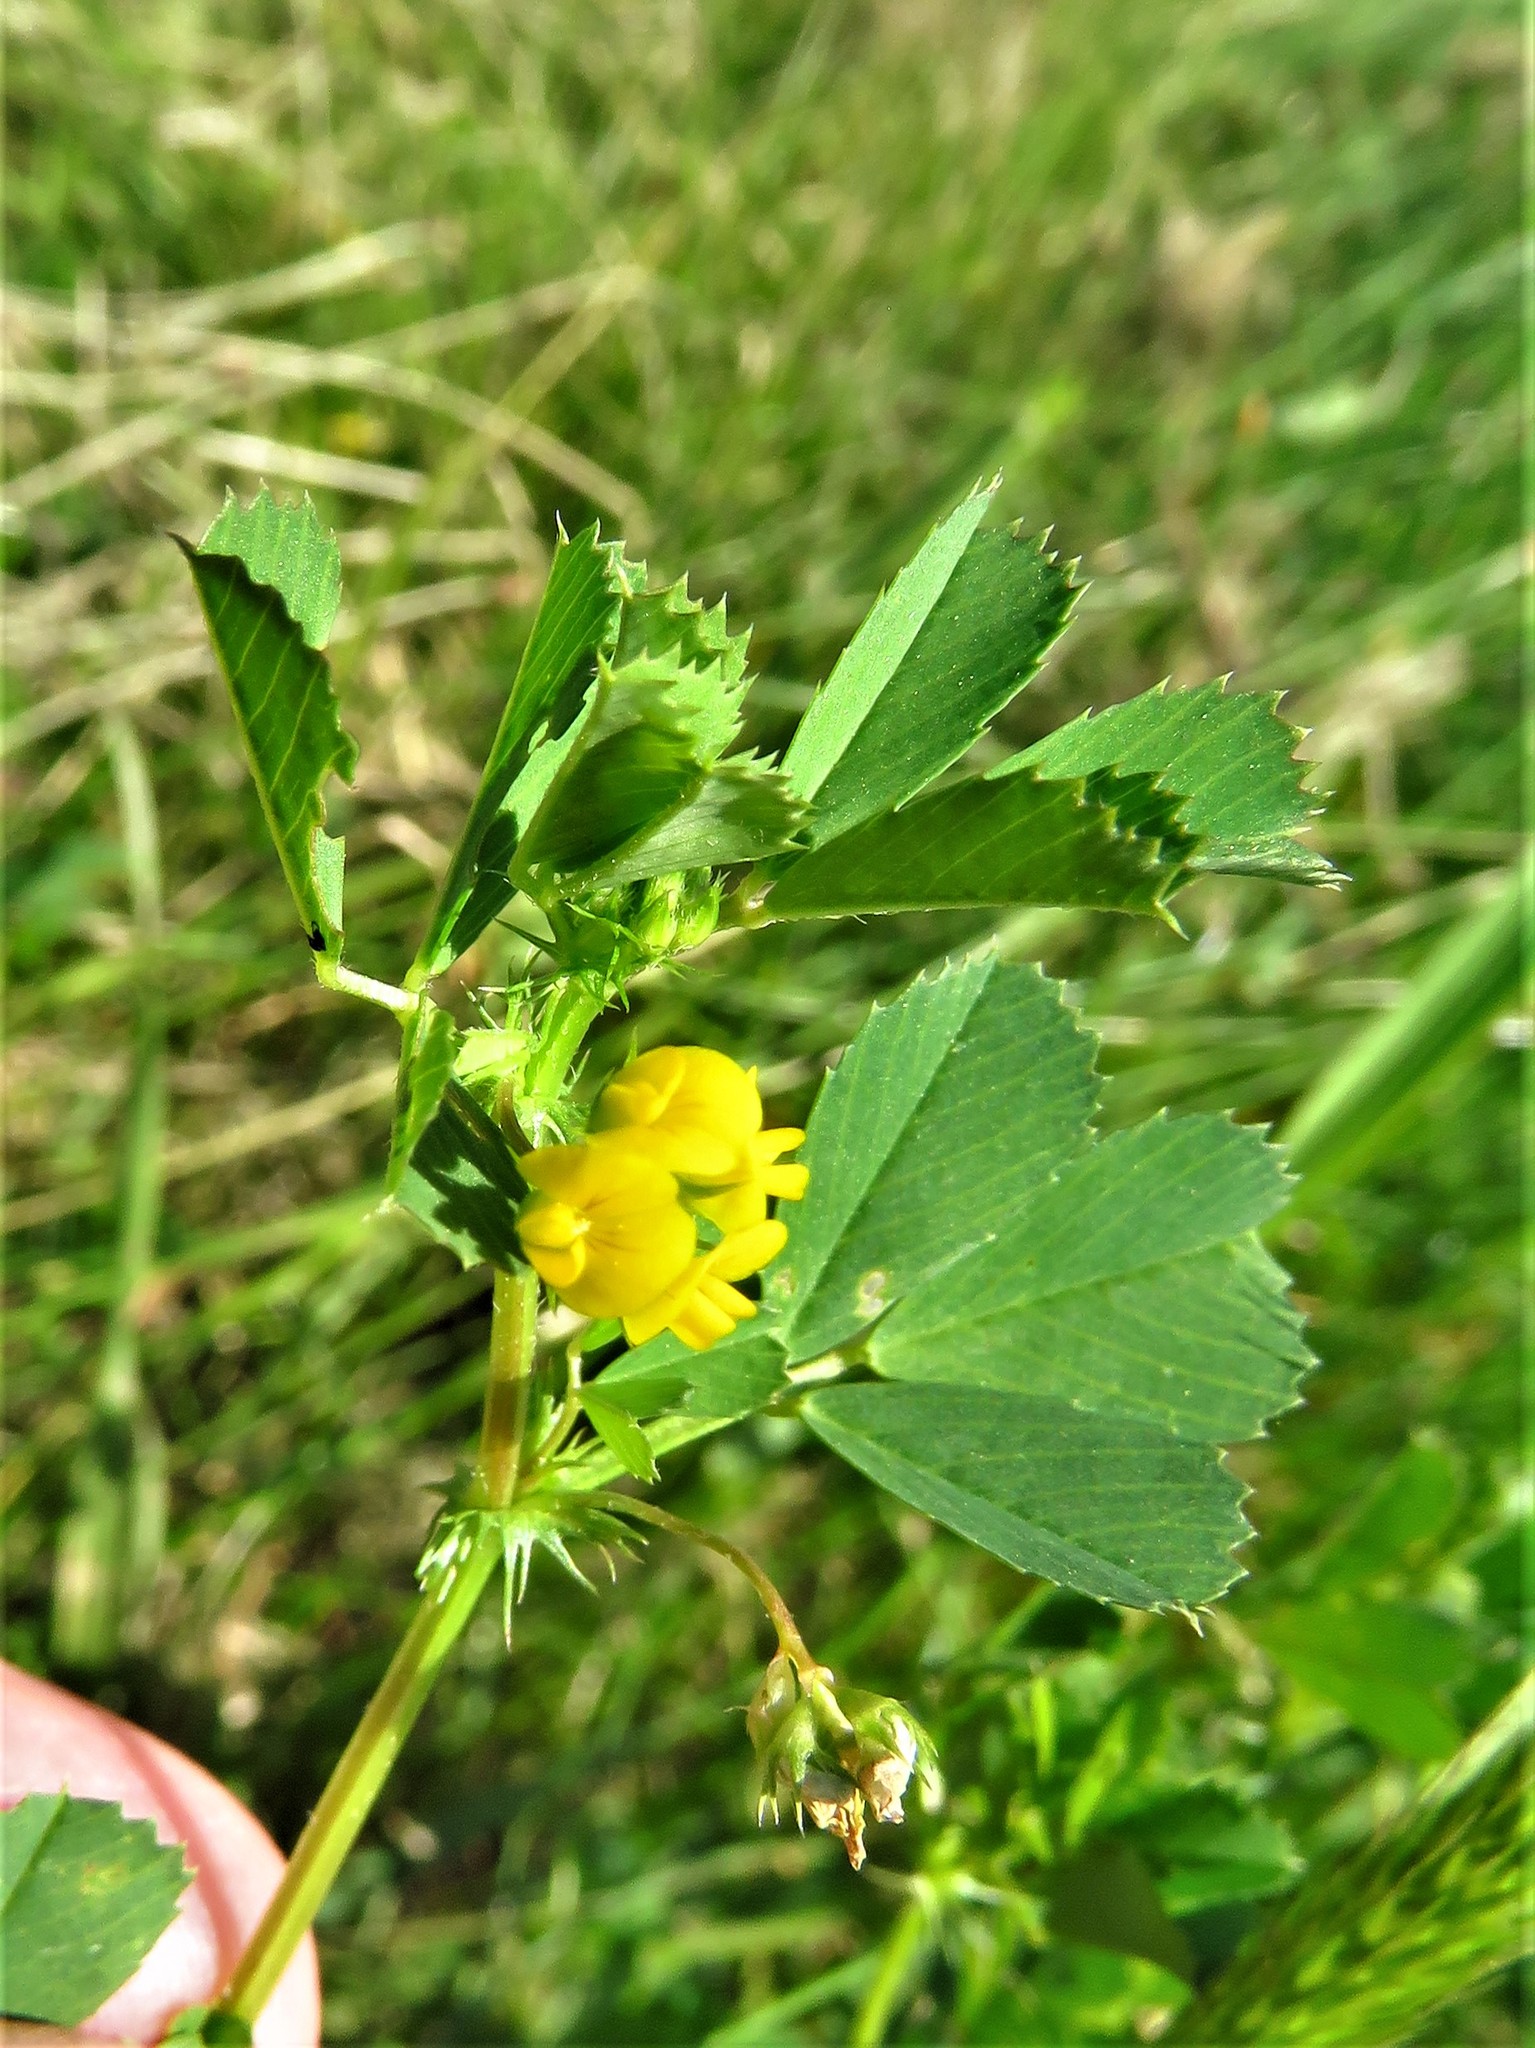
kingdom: Plantae
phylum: Tracheophyta
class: Magnoliopsida
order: Fabales
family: Fabaceae
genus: Medicago
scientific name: Medicago polymorpha
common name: Burclover
